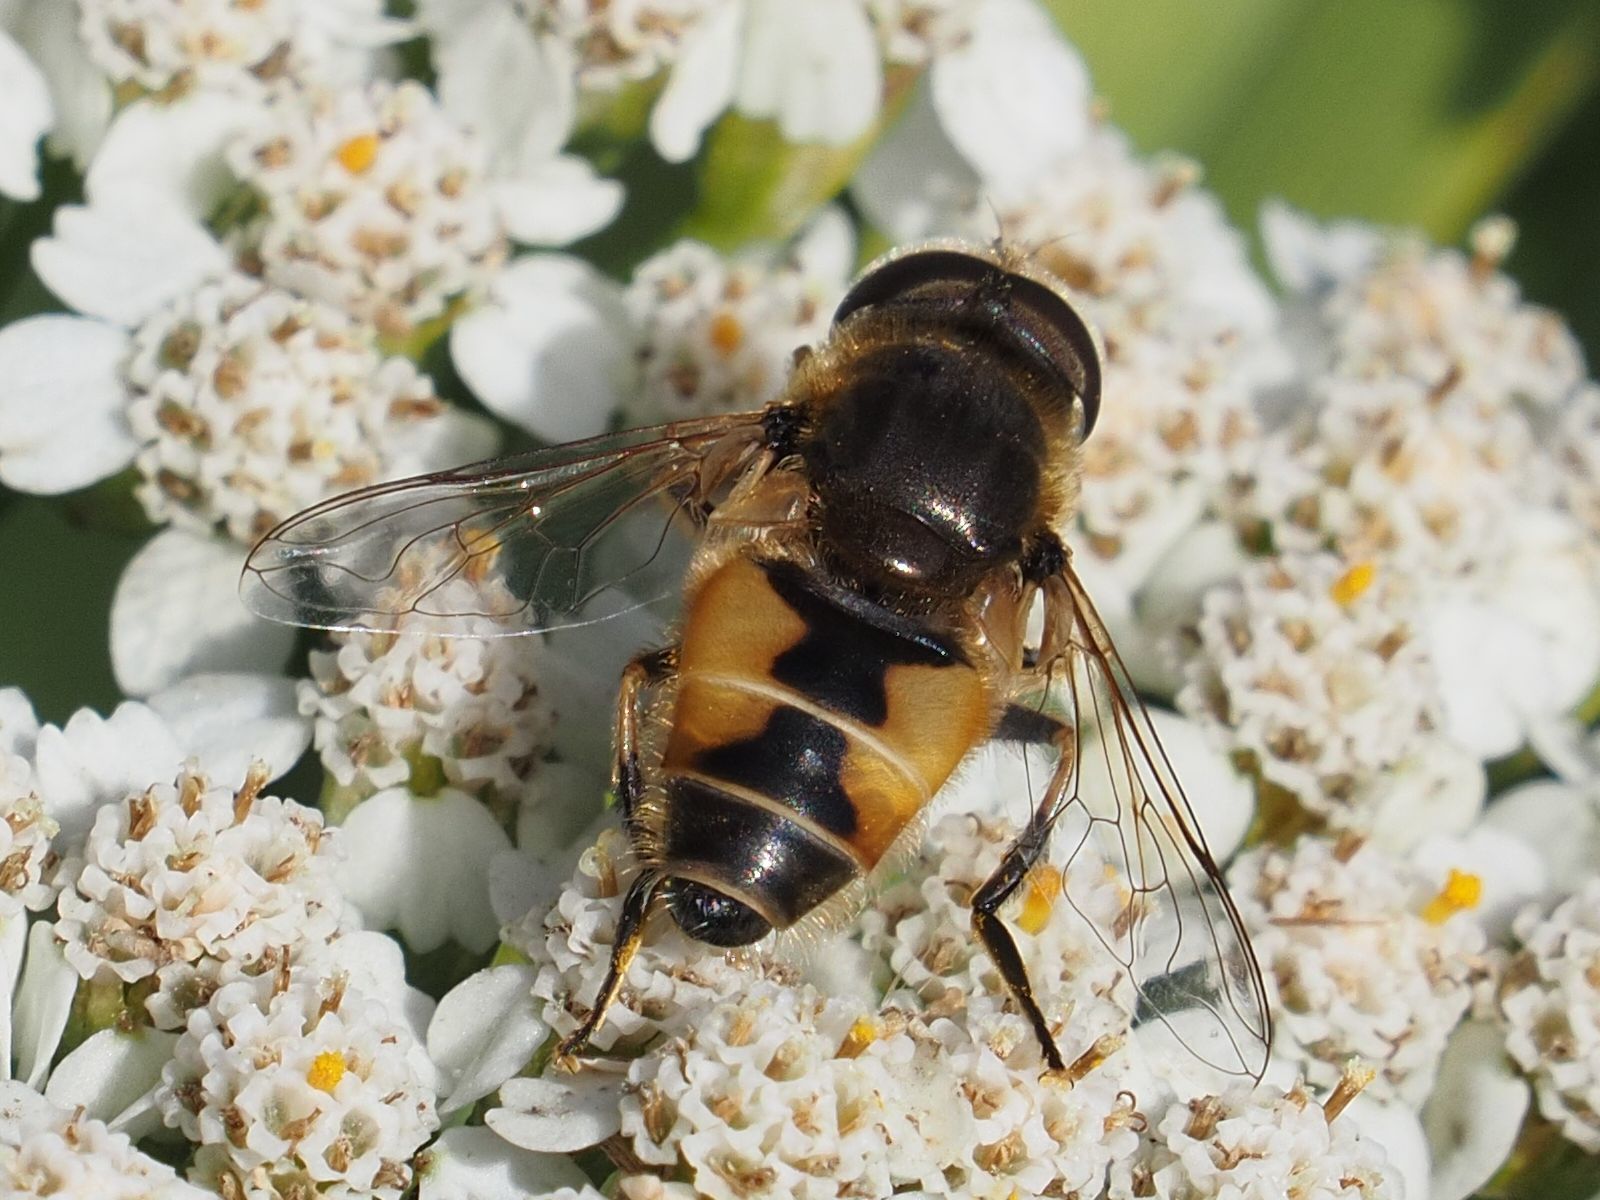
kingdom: Animalia
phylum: Arthropoda
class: Insecta
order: Diptera
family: Syrphidae
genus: Eristalis
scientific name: Eristalis arbustorum
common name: Hover fly
